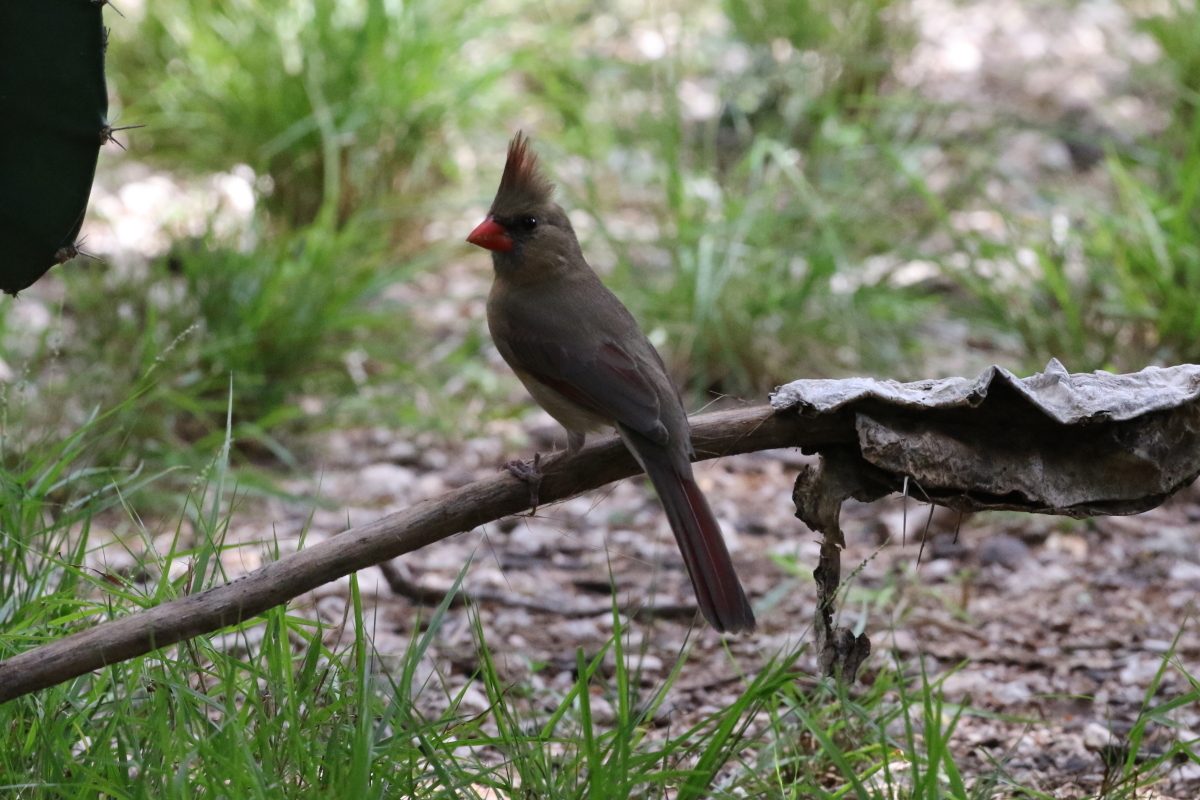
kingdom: Animalia
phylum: Chordata
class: Aves
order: Passeriformes
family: Cardinalidae
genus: Cardinalis
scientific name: Cardinalis cardinalis
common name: Northern cardinal
